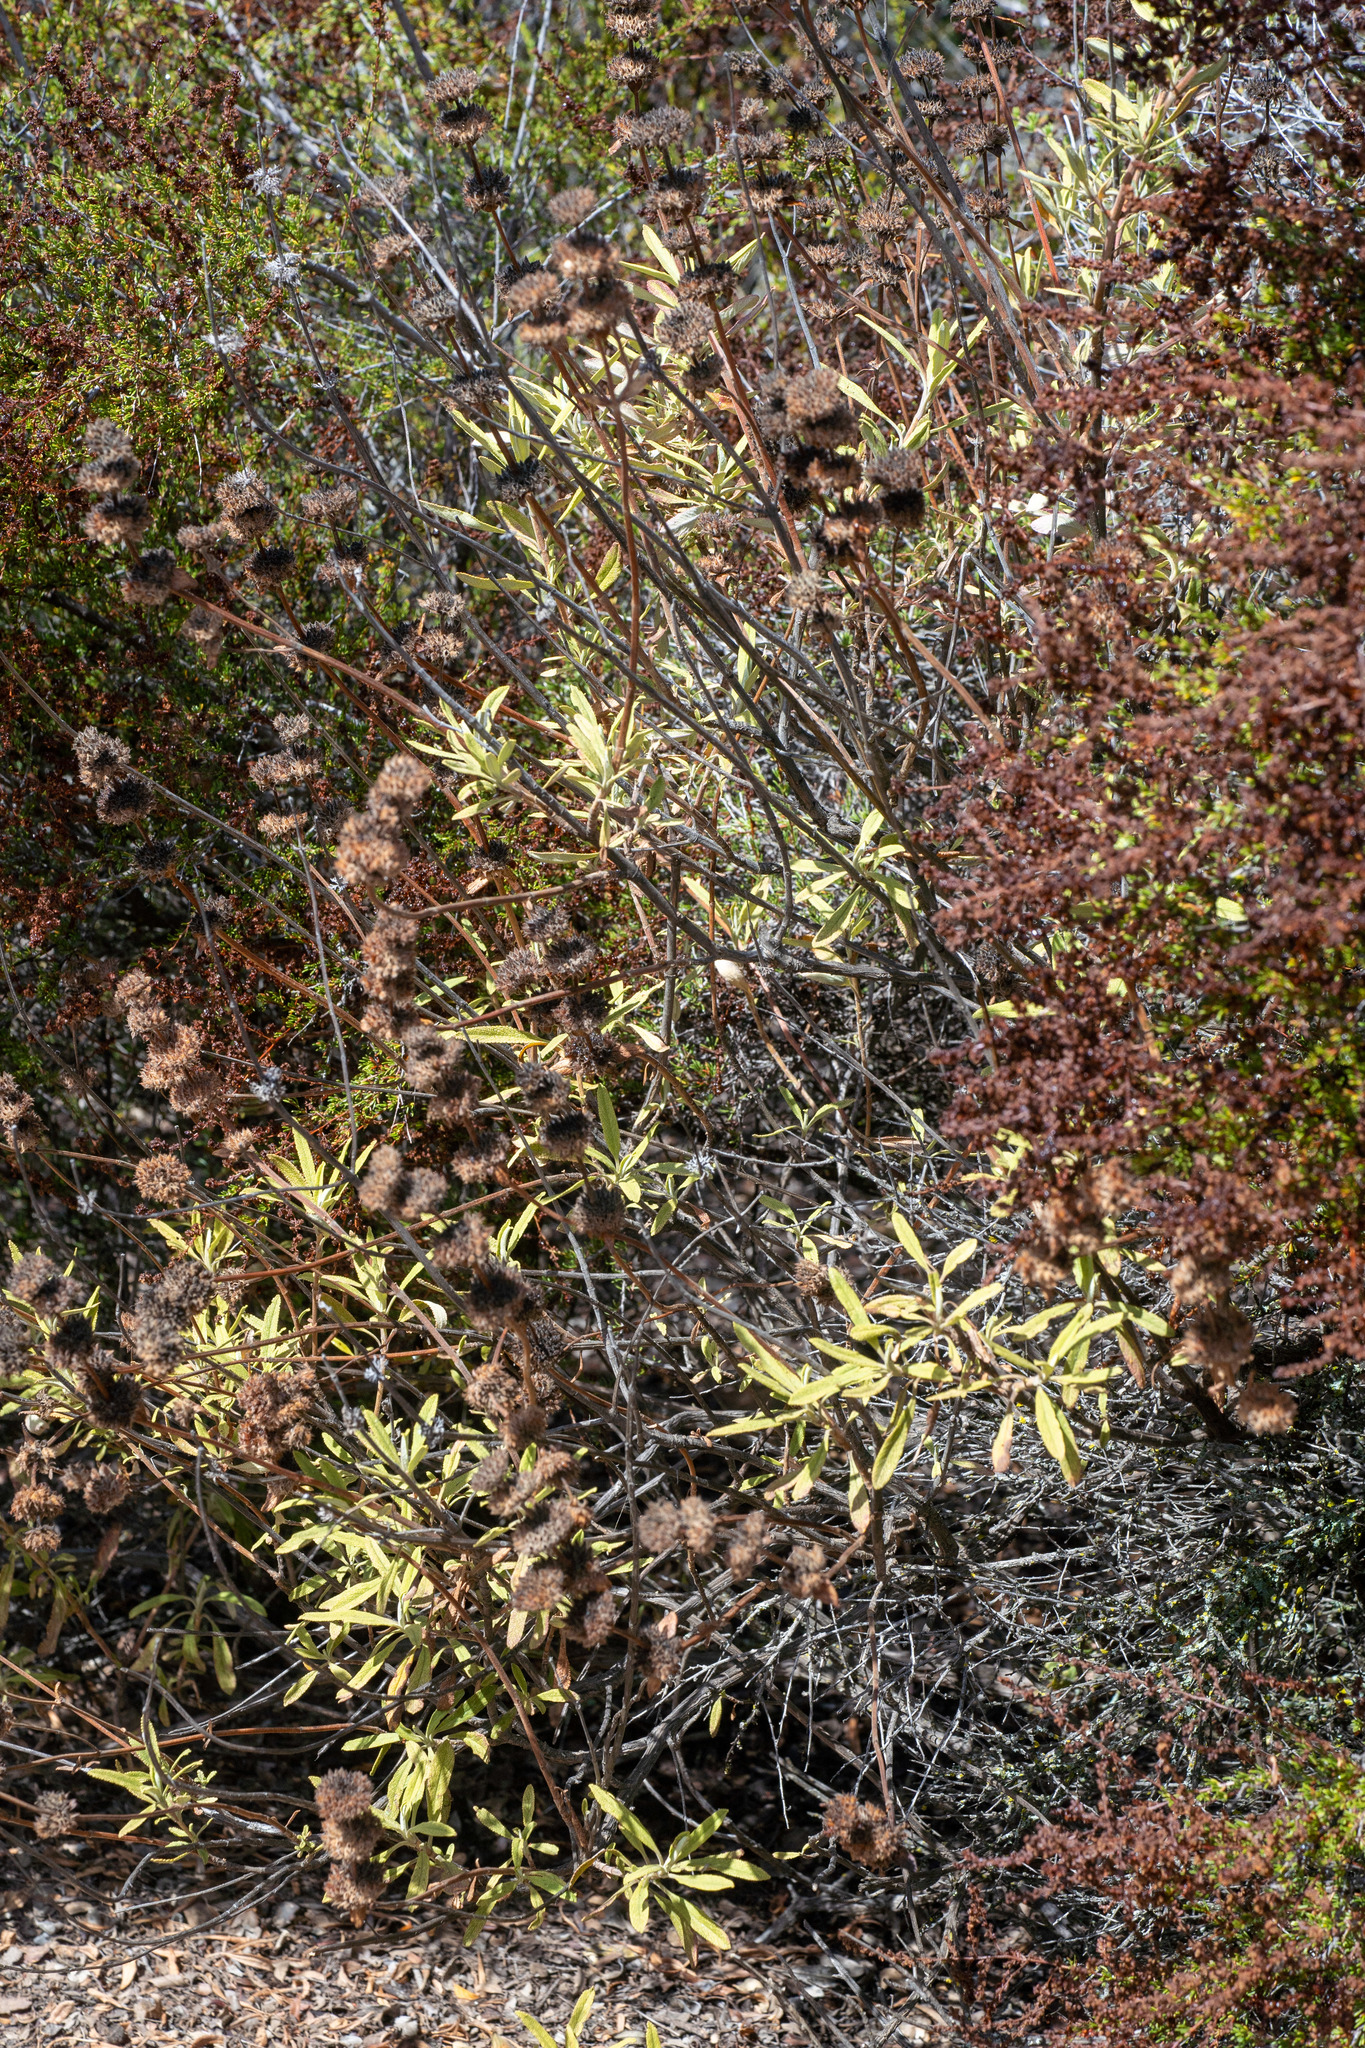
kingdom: Plantae
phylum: Tracheophyta
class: Magnoliopsida
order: Lamiales
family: Lamiaceae
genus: Salvia
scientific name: Salvia mellifera
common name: Black sage
